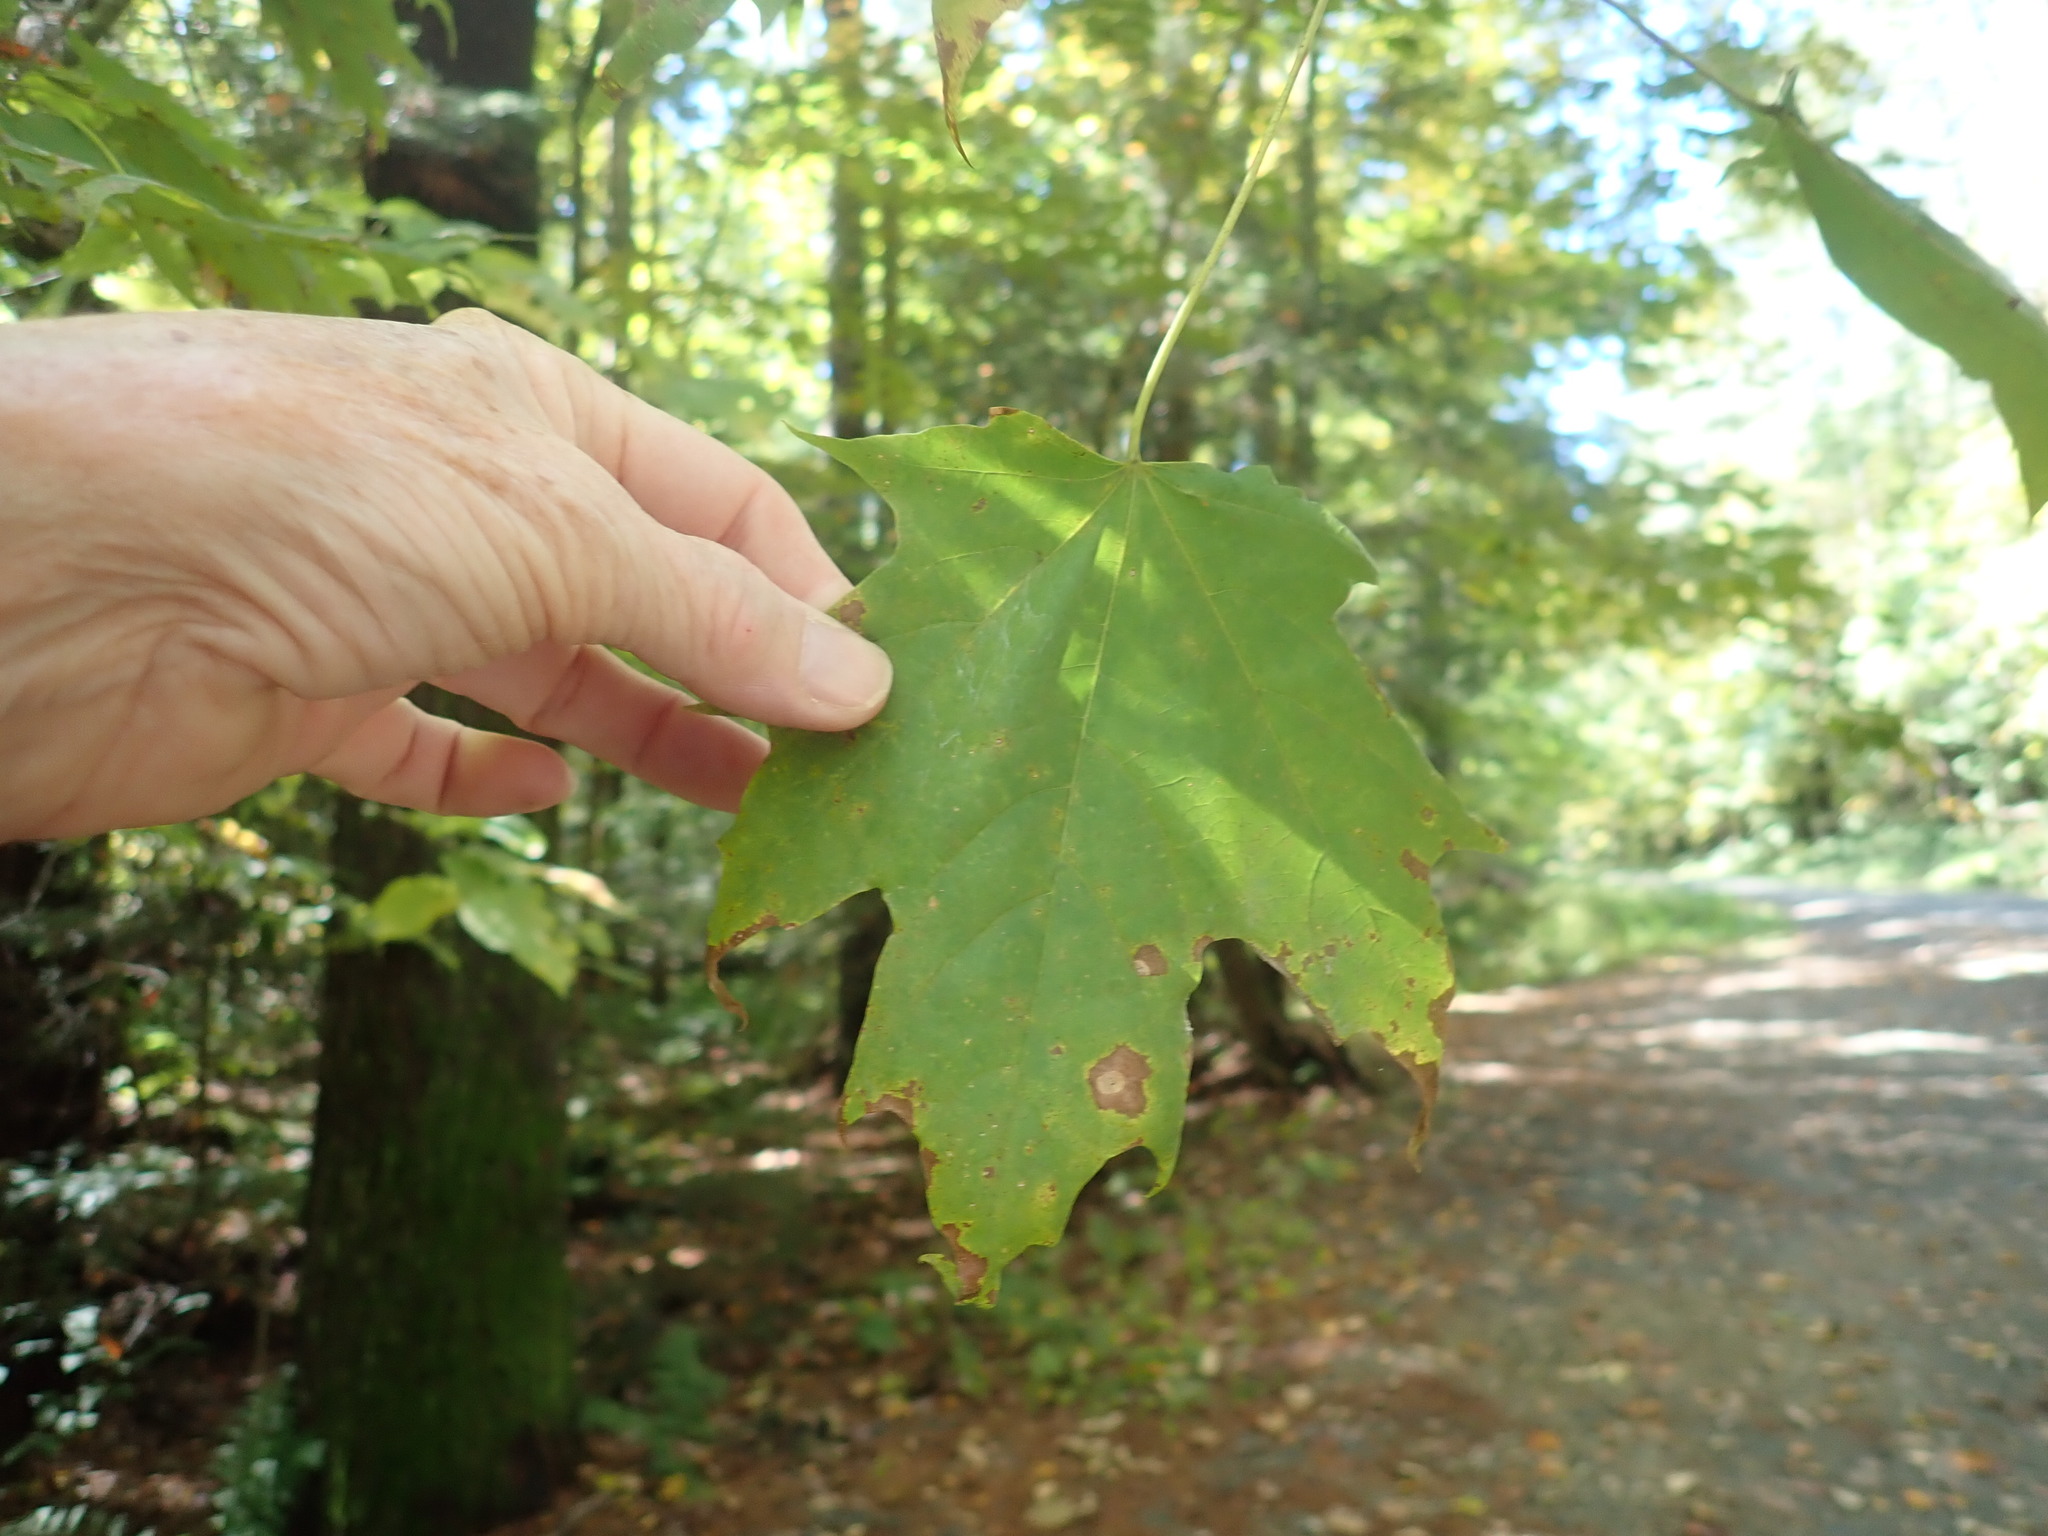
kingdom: Plantae
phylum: Tracheophyta
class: Magnoliopsida
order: Sapindales
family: Sapindaceae
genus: Acer
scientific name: Acer saccharum
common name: Sugar maple
